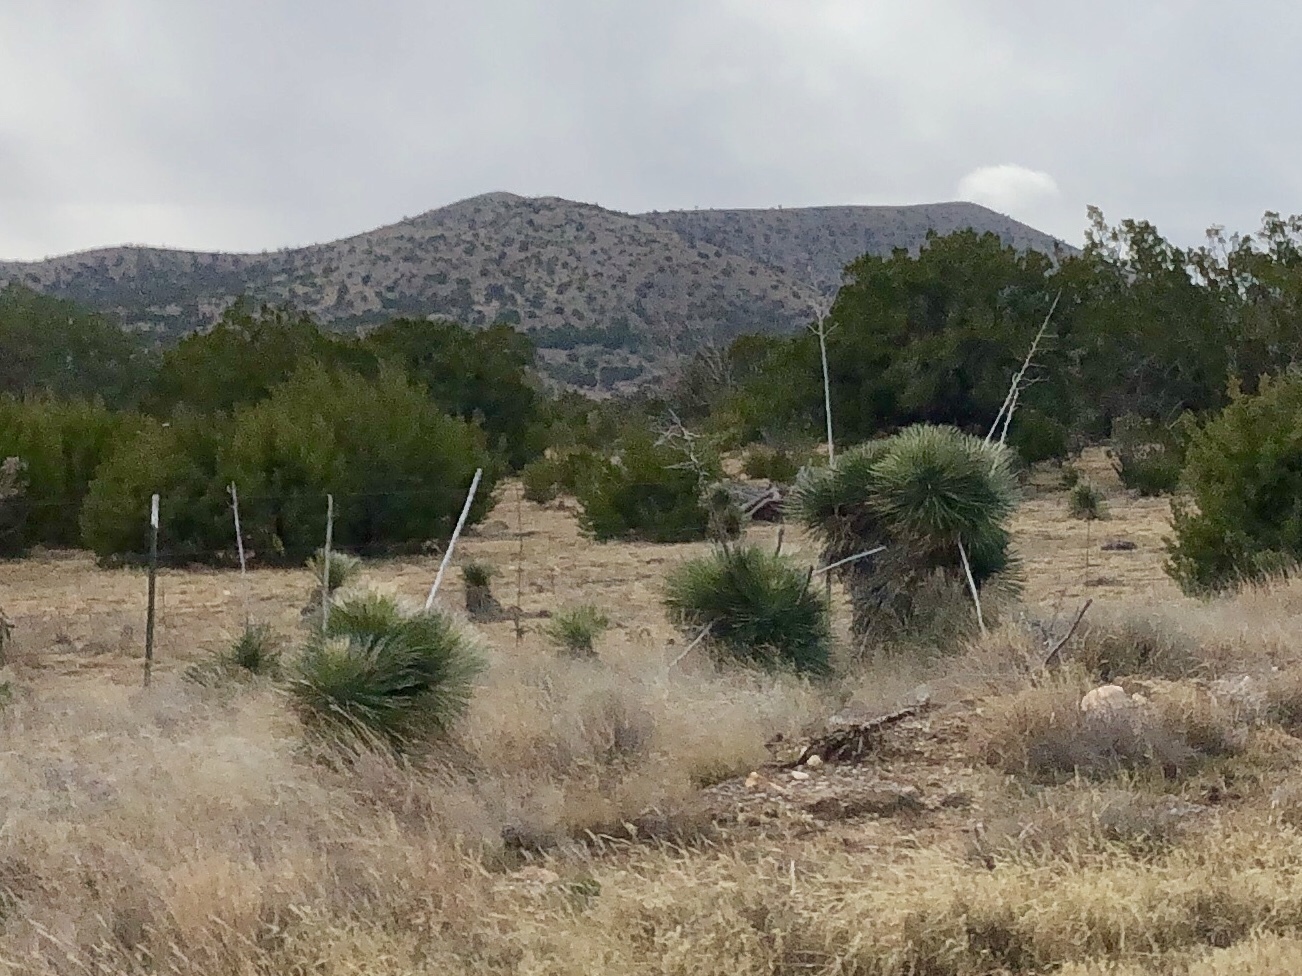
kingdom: Plantae
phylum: Tracheophyta
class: Liliopsida
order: Asparagales
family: Asparagaceae
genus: Yucca
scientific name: Yucca elata
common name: Palmella
